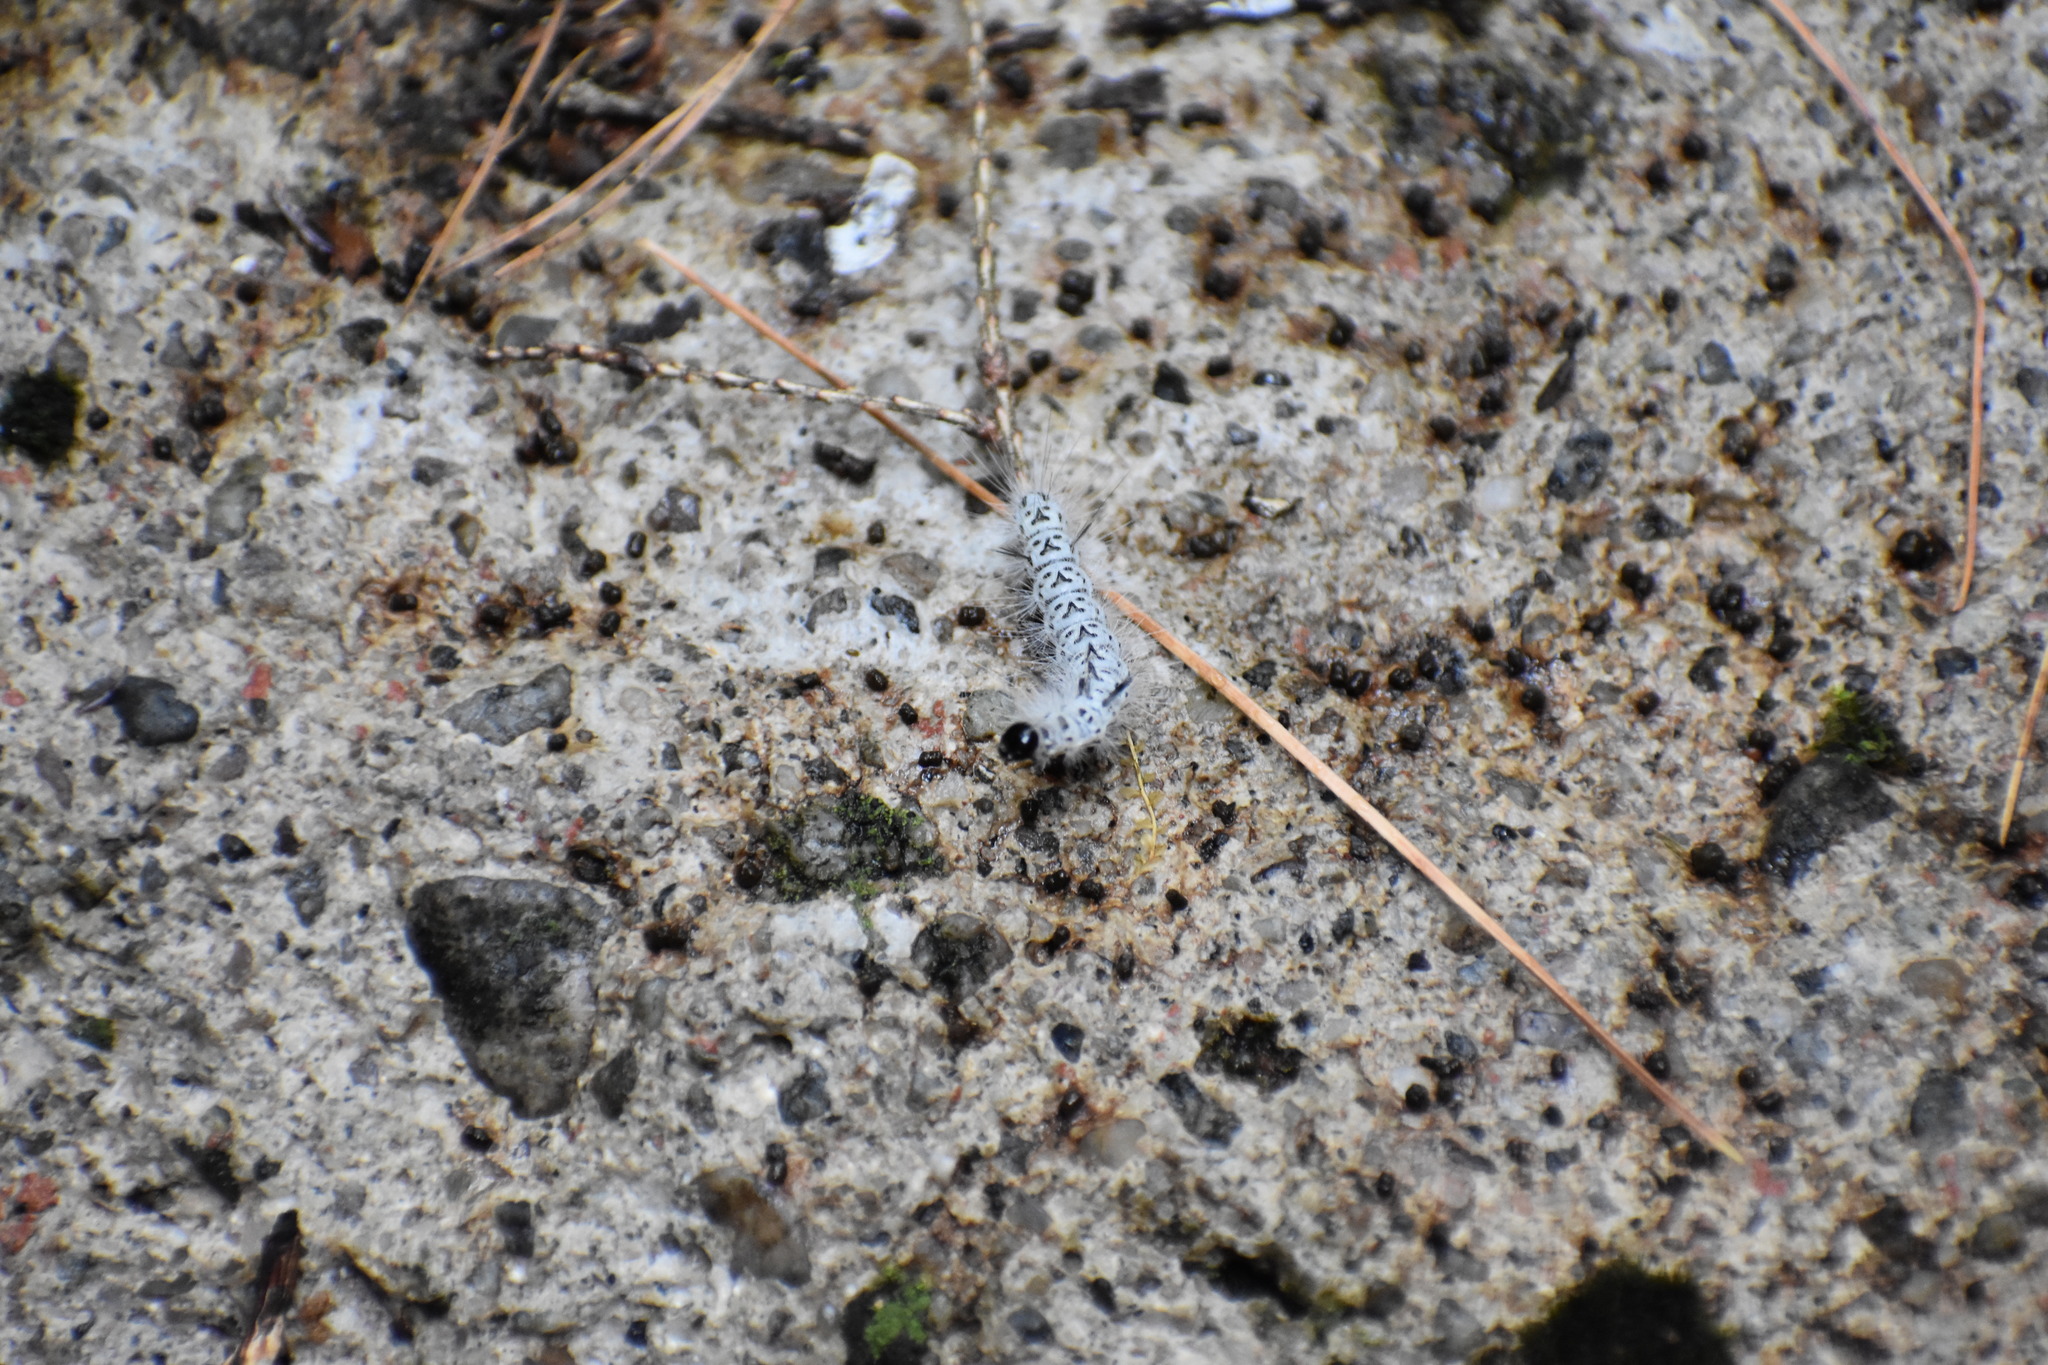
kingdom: Animalia
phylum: Arthropoda
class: Insecta
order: Lepidoptera
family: Erebidae
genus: Lophocampa
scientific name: Lophocampa caryae
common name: Hickory tussock moth
